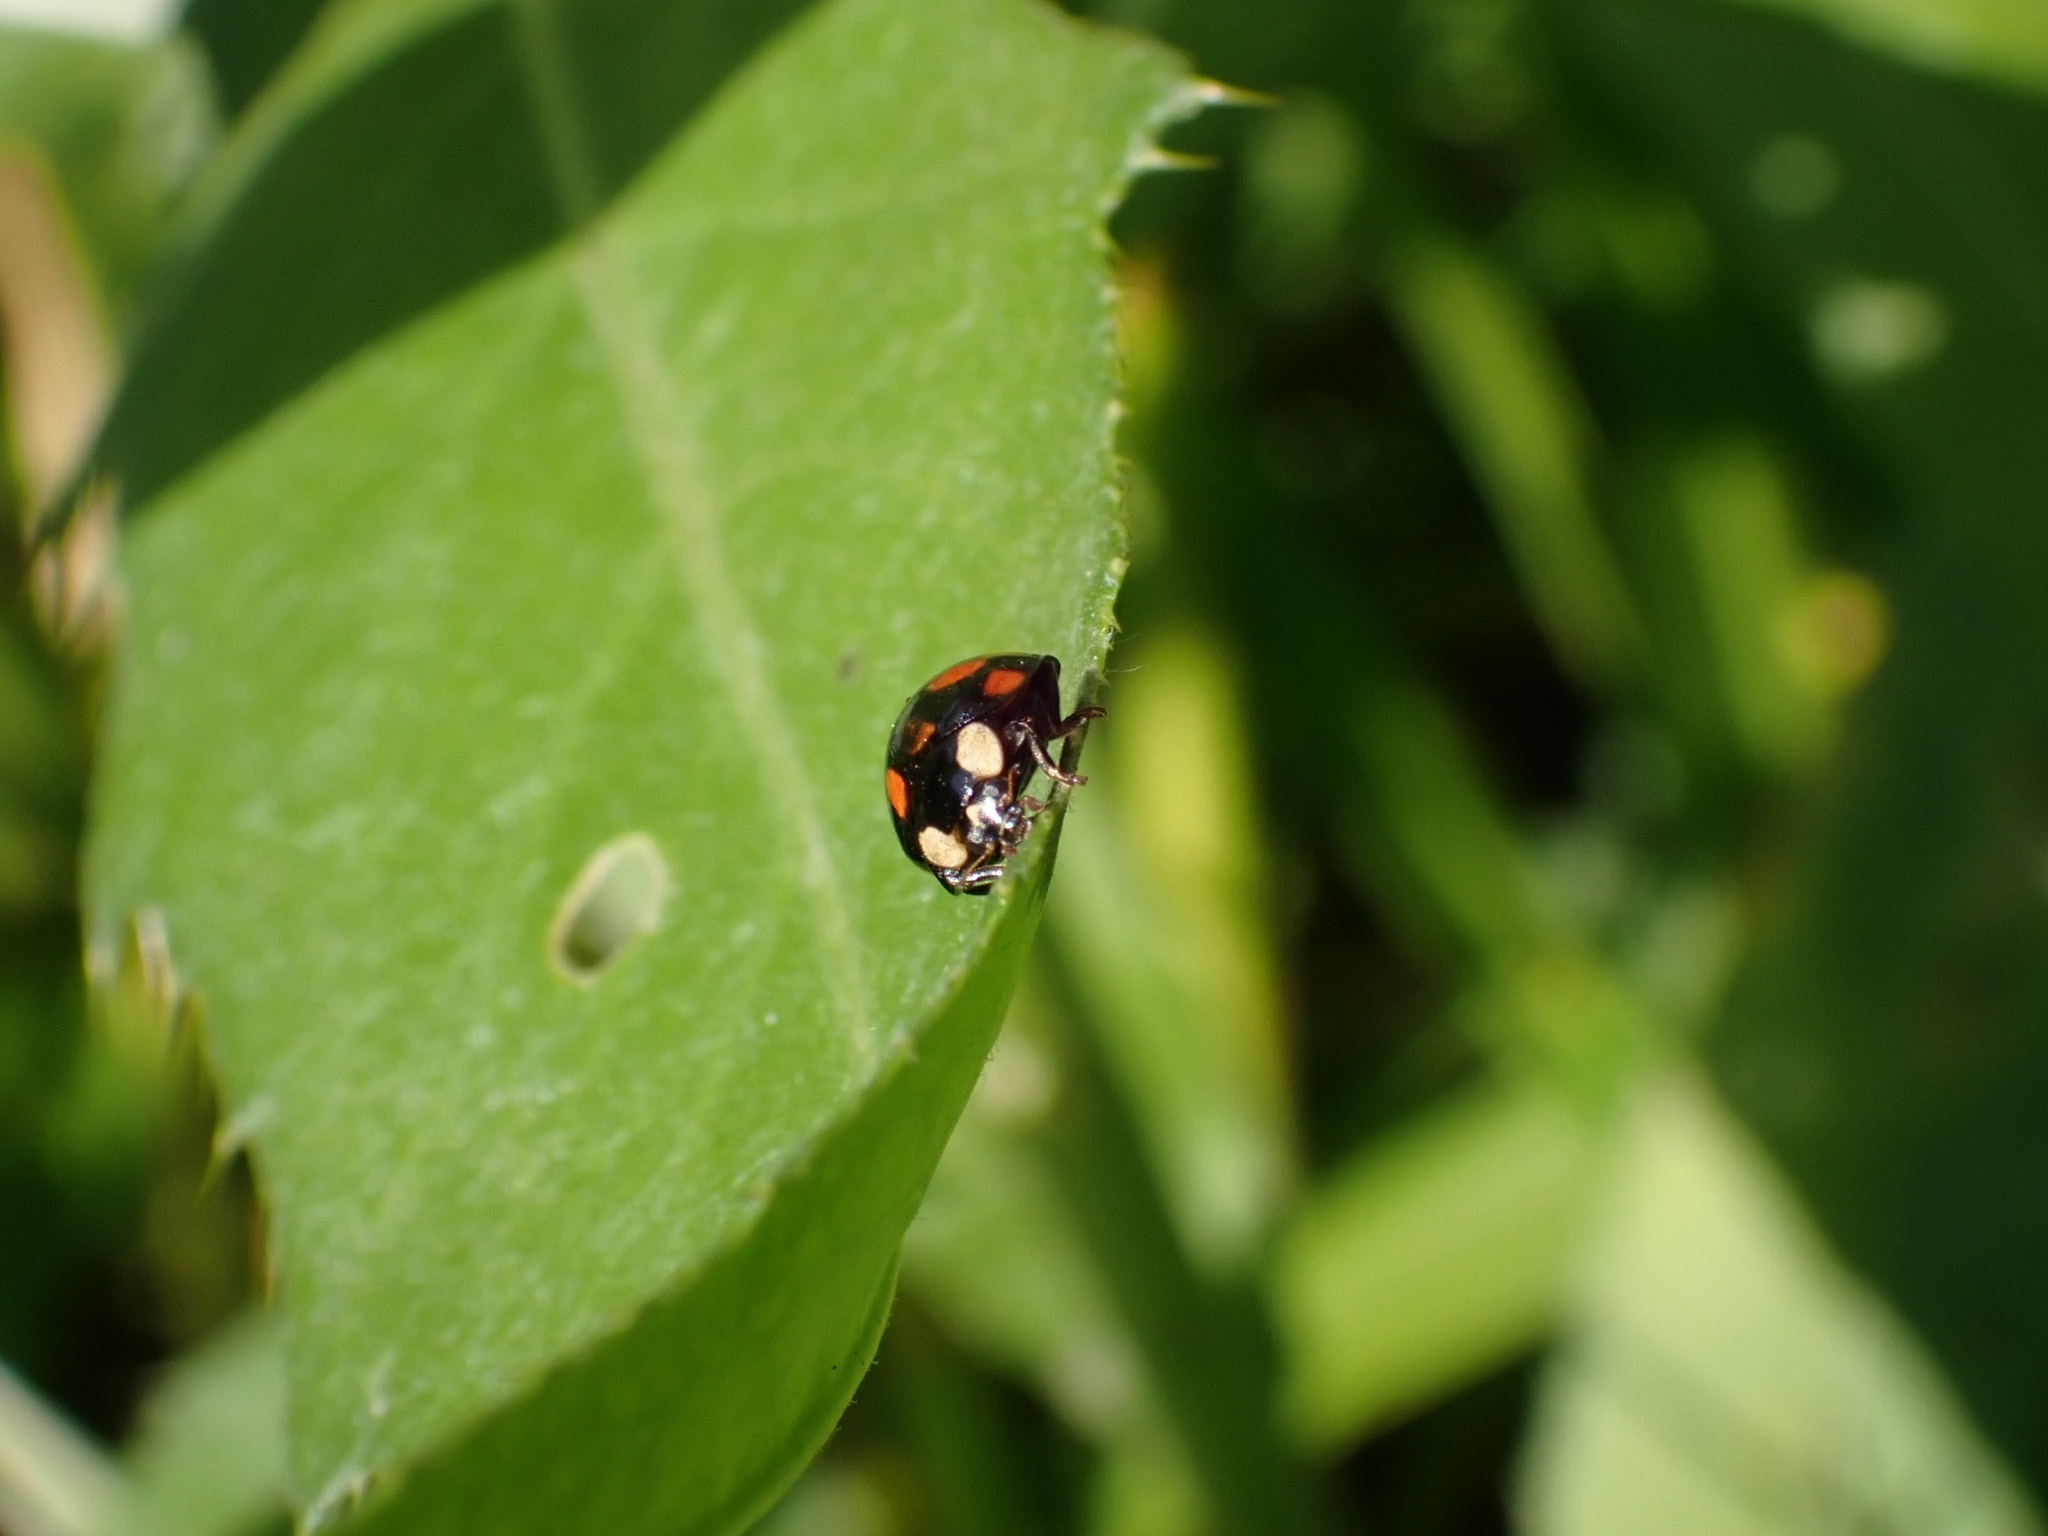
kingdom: Animalia
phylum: Arthropoda
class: Insecta
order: Coleoptera
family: Coccinellidae
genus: Harmonia
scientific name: Harmonia axyridis
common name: Harlequin ladybird
